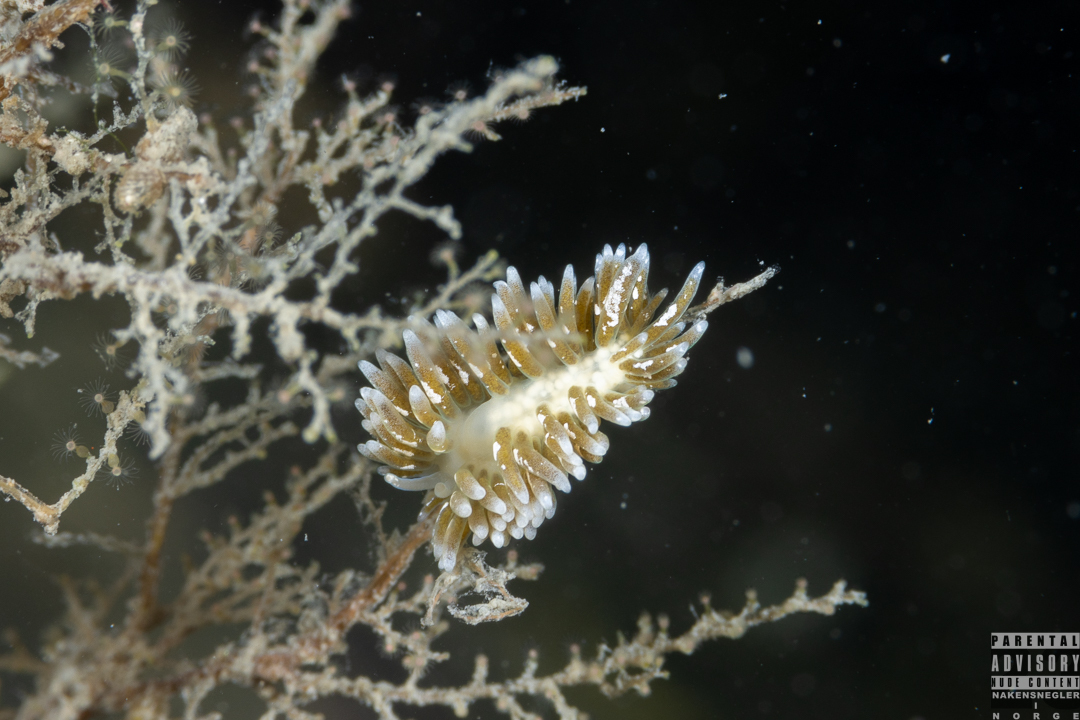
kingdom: Animalia
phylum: Mollusca
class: Gastropoda
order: Nudibranchia
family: Trinchesiidae
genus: Zelentia
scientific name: Zelentia pustulata
